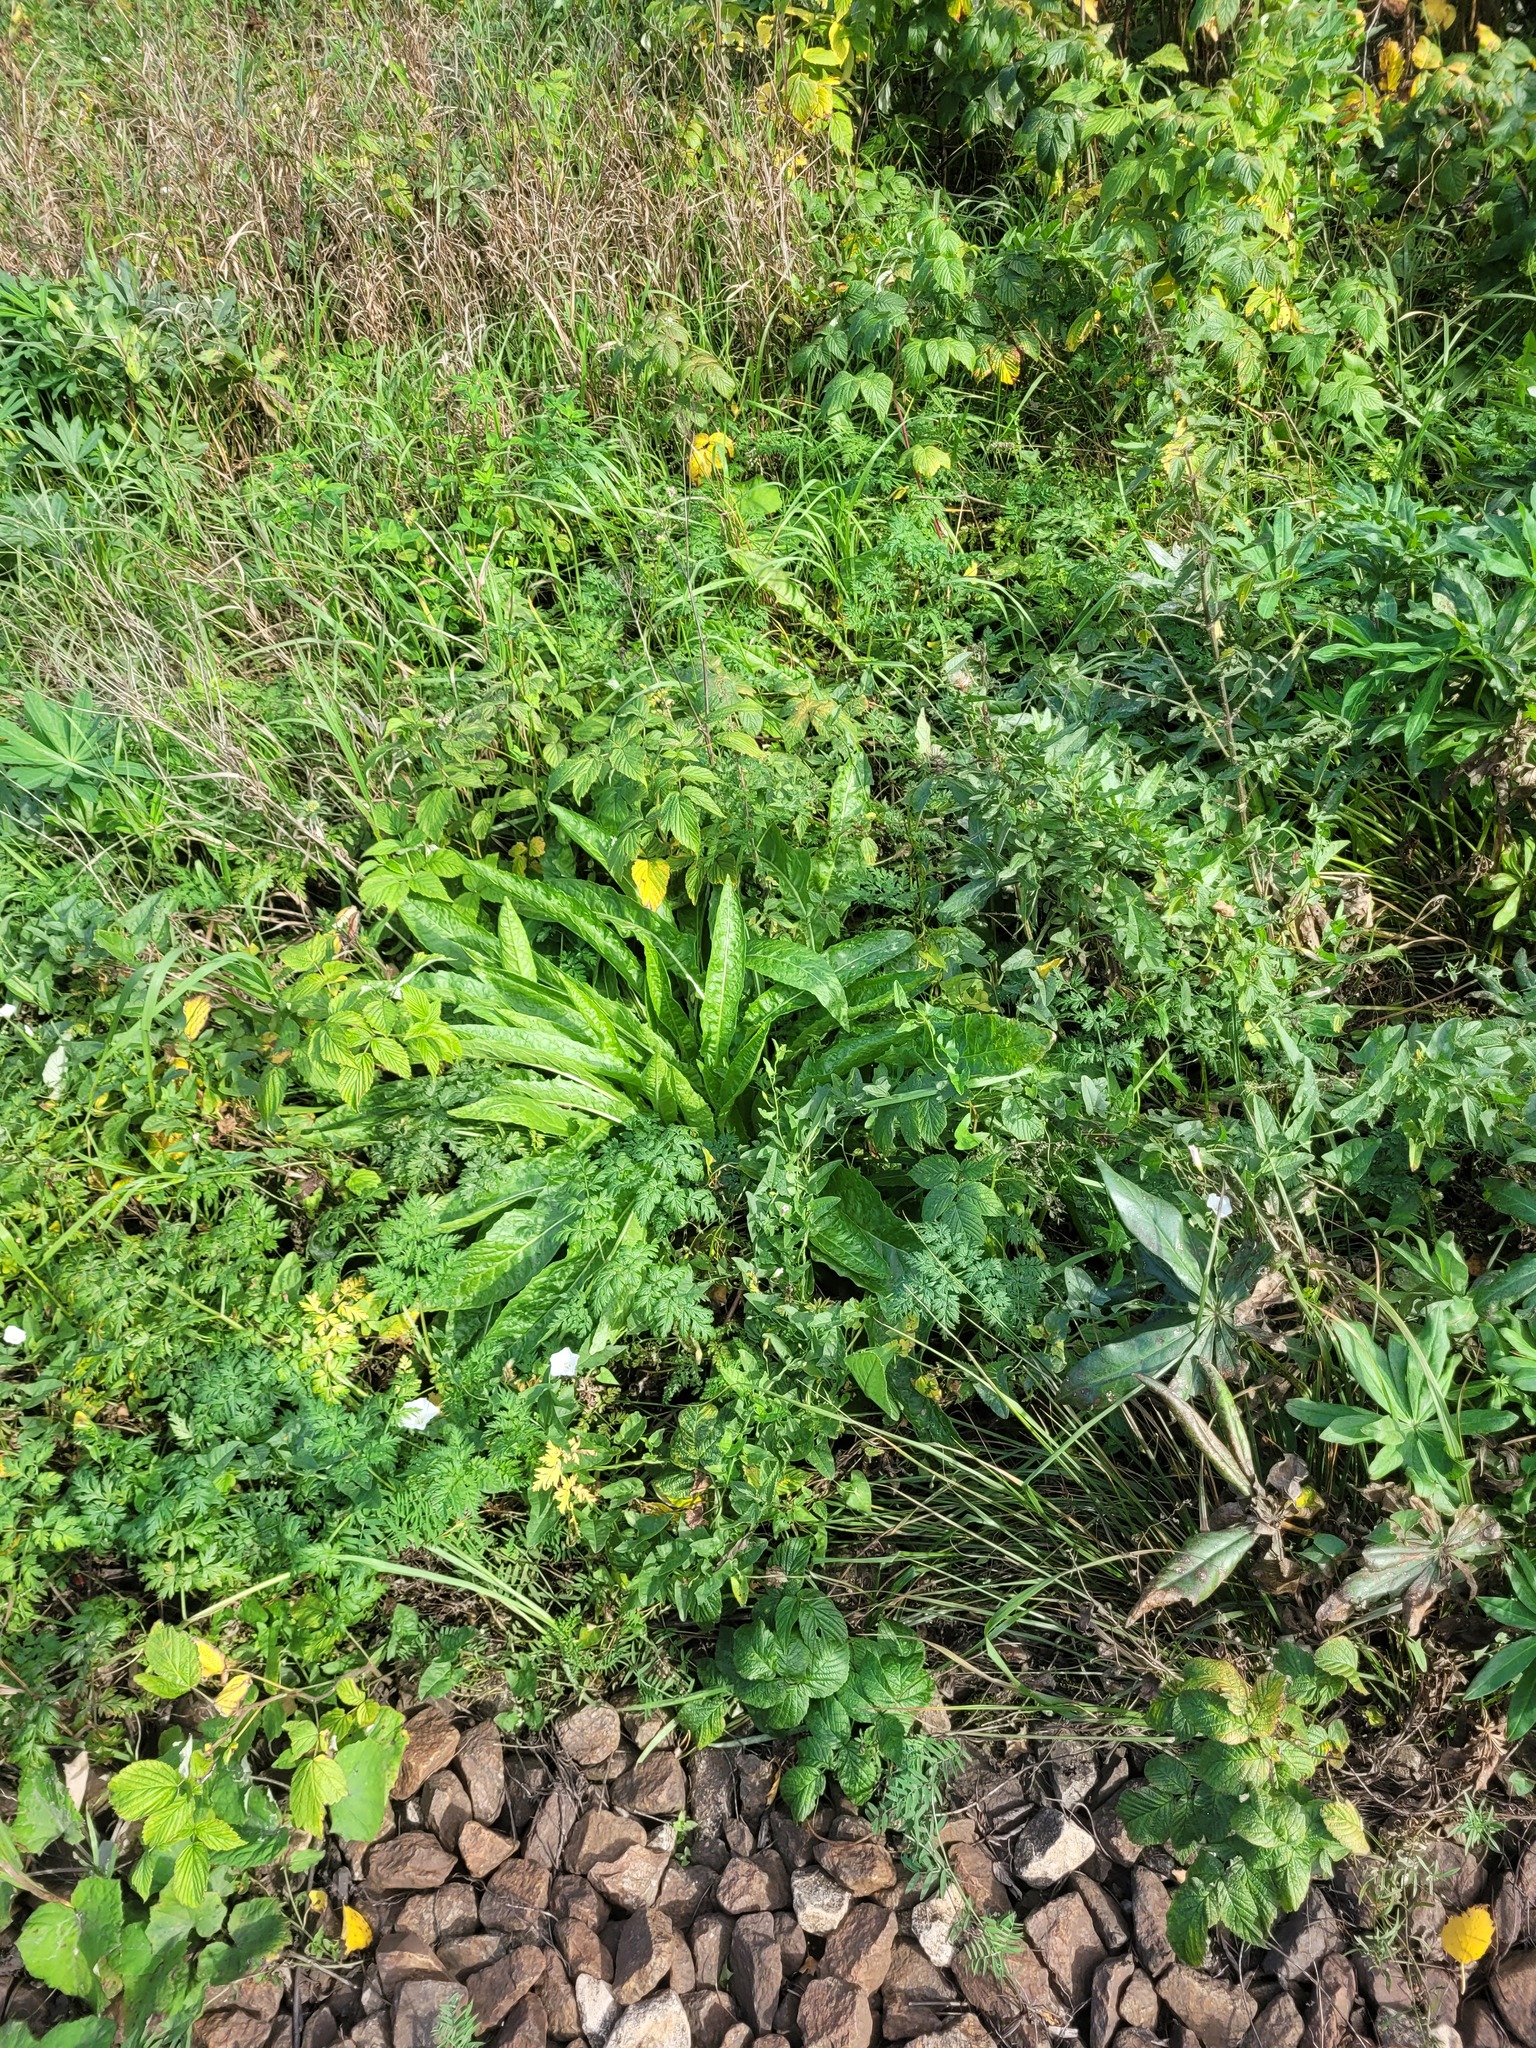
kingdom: Plantae
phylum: Tracheophyta
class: Magnoliopsida
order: Brassicales
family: Brassicaceae
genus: Bunias
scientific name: Bunias orientalis
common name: Warty-cabbage
